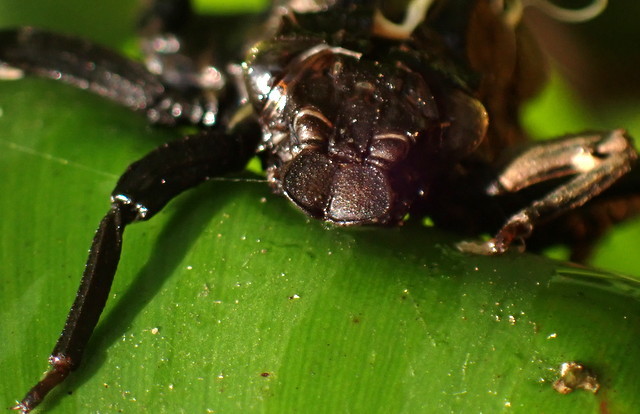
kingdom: Animalia
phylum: Arthropoda
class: Insecta
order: Odonata
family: Gomphidae
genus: Hagenius
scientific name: Hagenius brevistylus
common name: Dragonhunter
